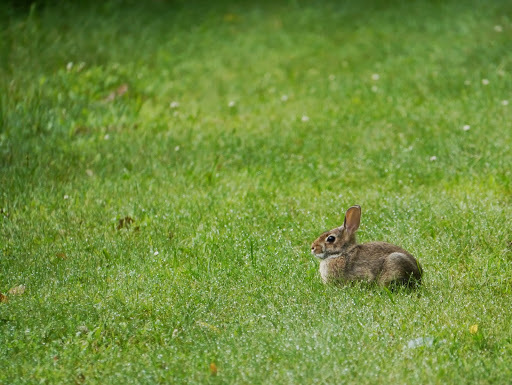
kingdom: Animalia
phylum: Chordata
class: Mammalia
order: Lagomorpha
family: Leporidae
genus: Sylvilagus
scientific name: Sylvilagus floridanus
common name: Eastern cottontail
